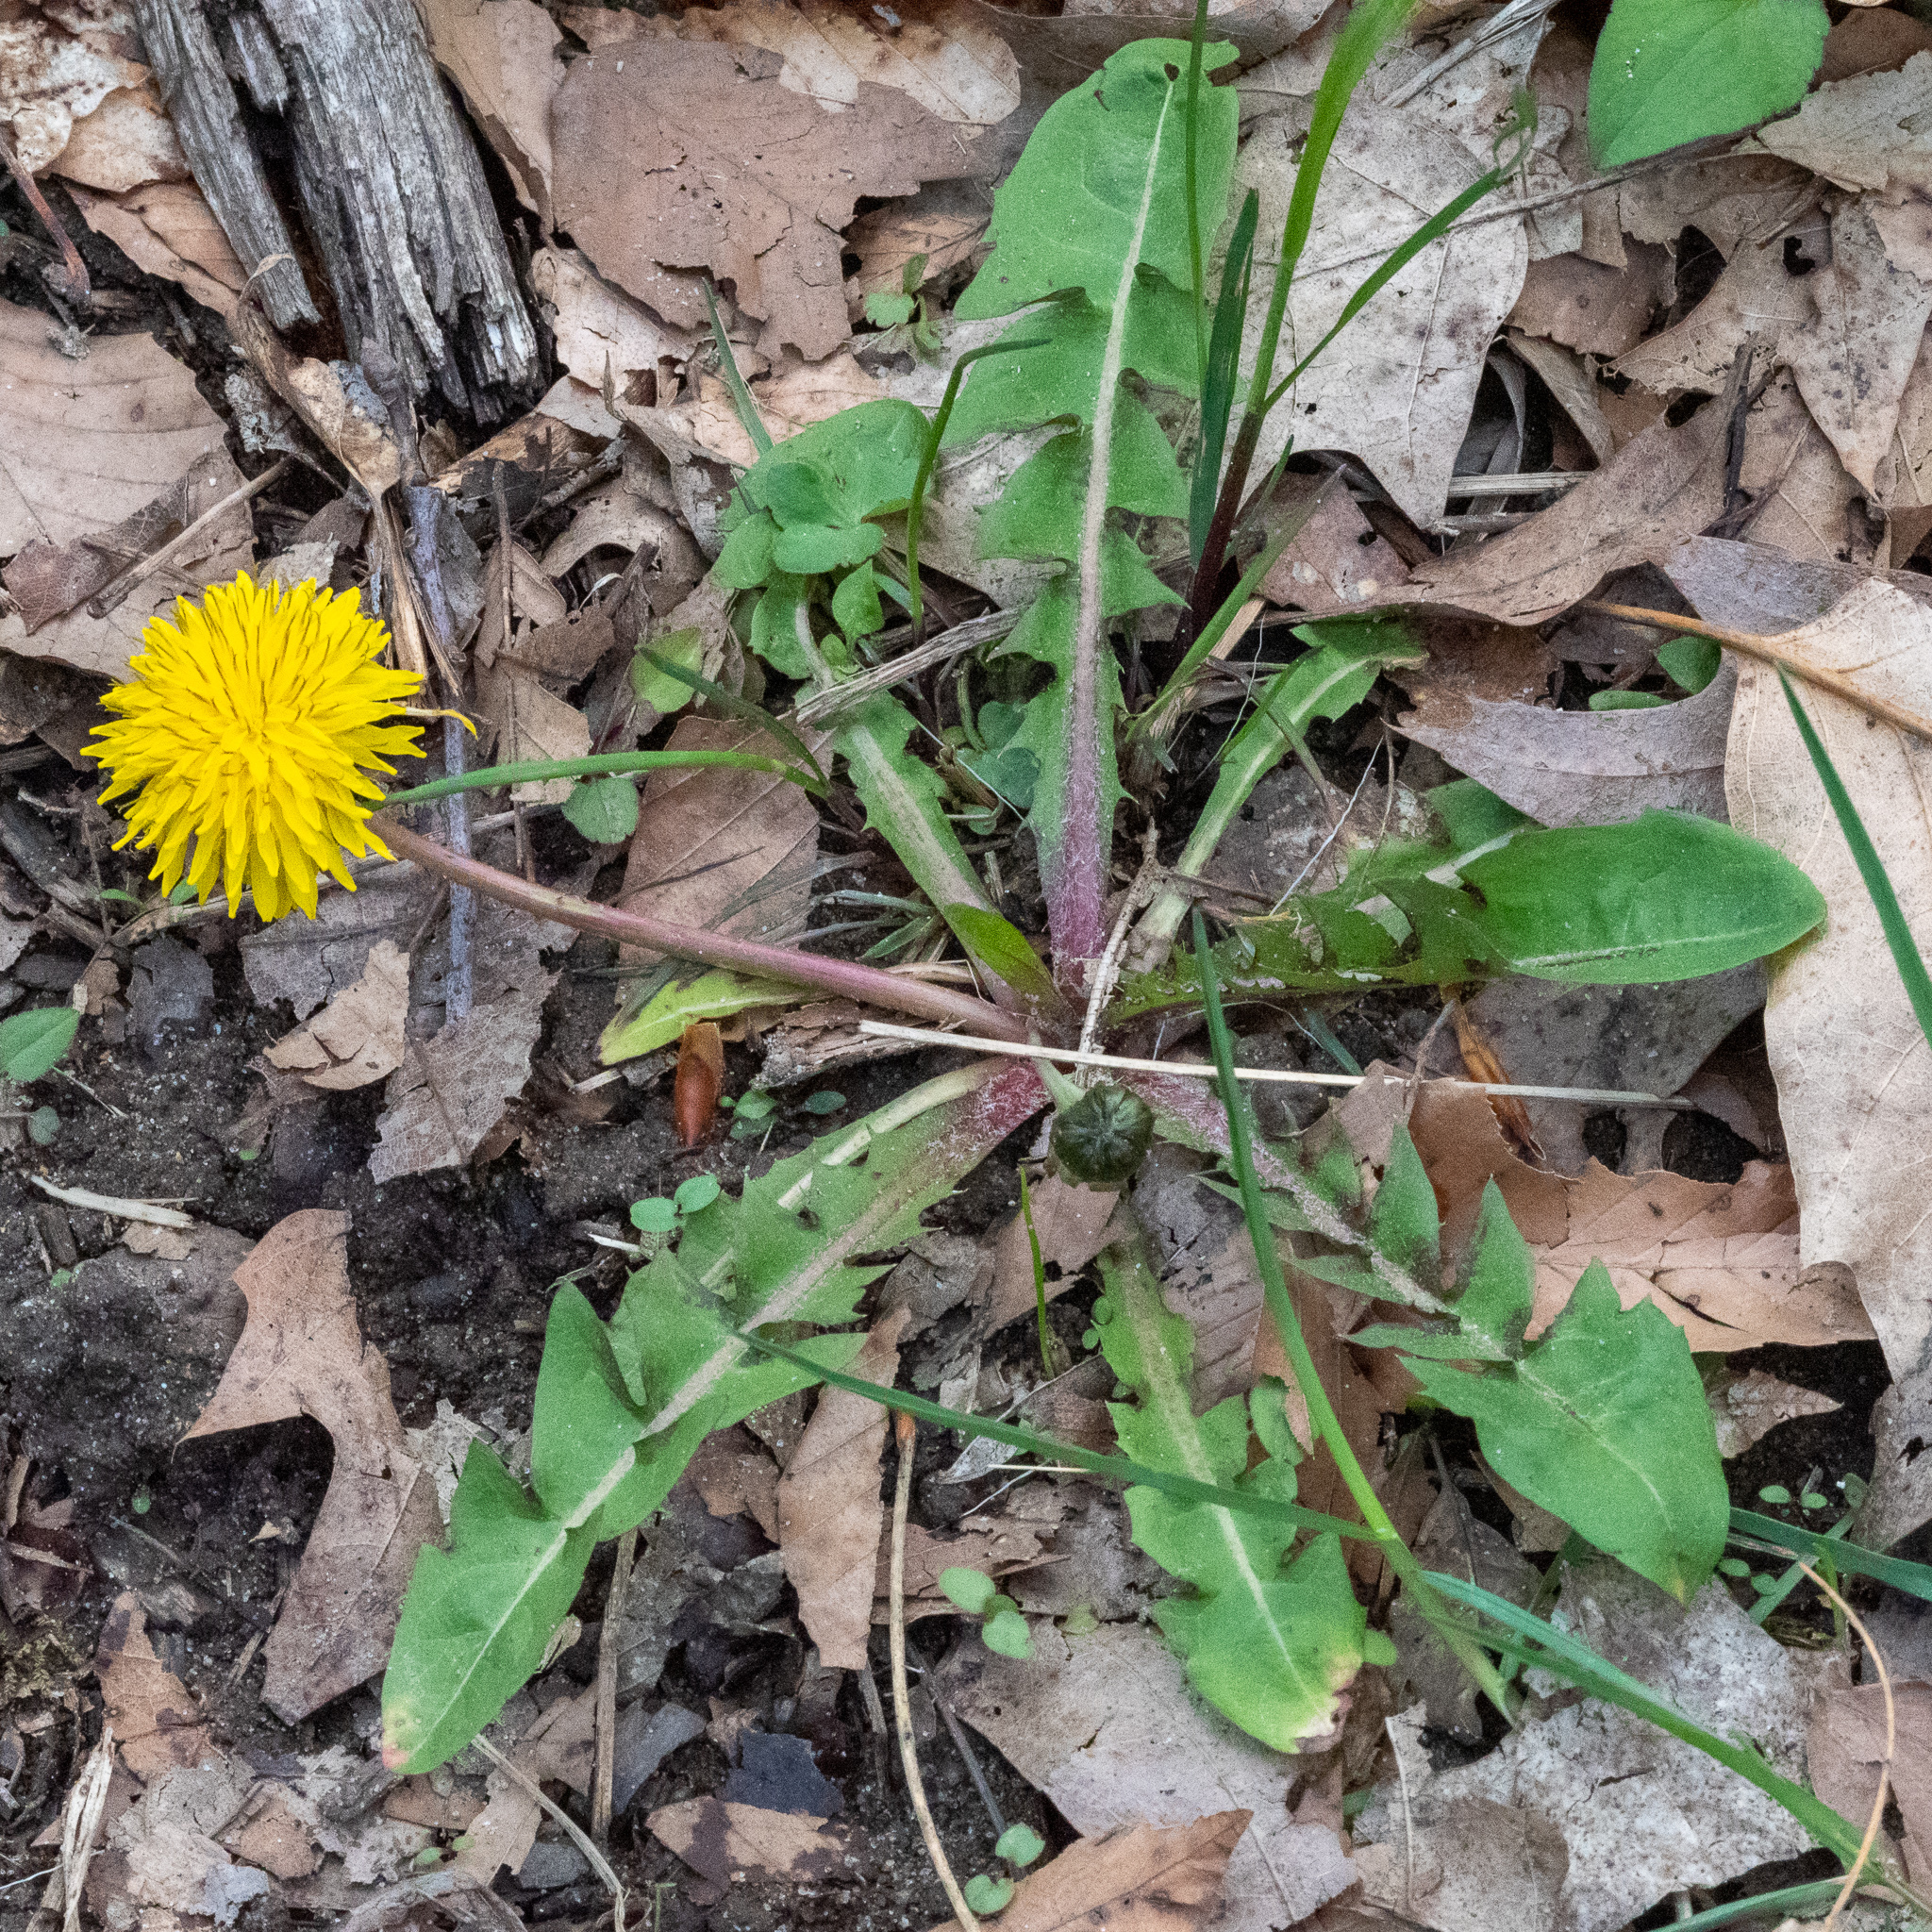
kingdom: Plantae
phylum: Tracheophyta
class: Magnoliopsida
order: Asterales
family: Asteraceae
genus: Taraxacum
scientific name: Taraxacum erythrospermum
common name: Rock dandelion
